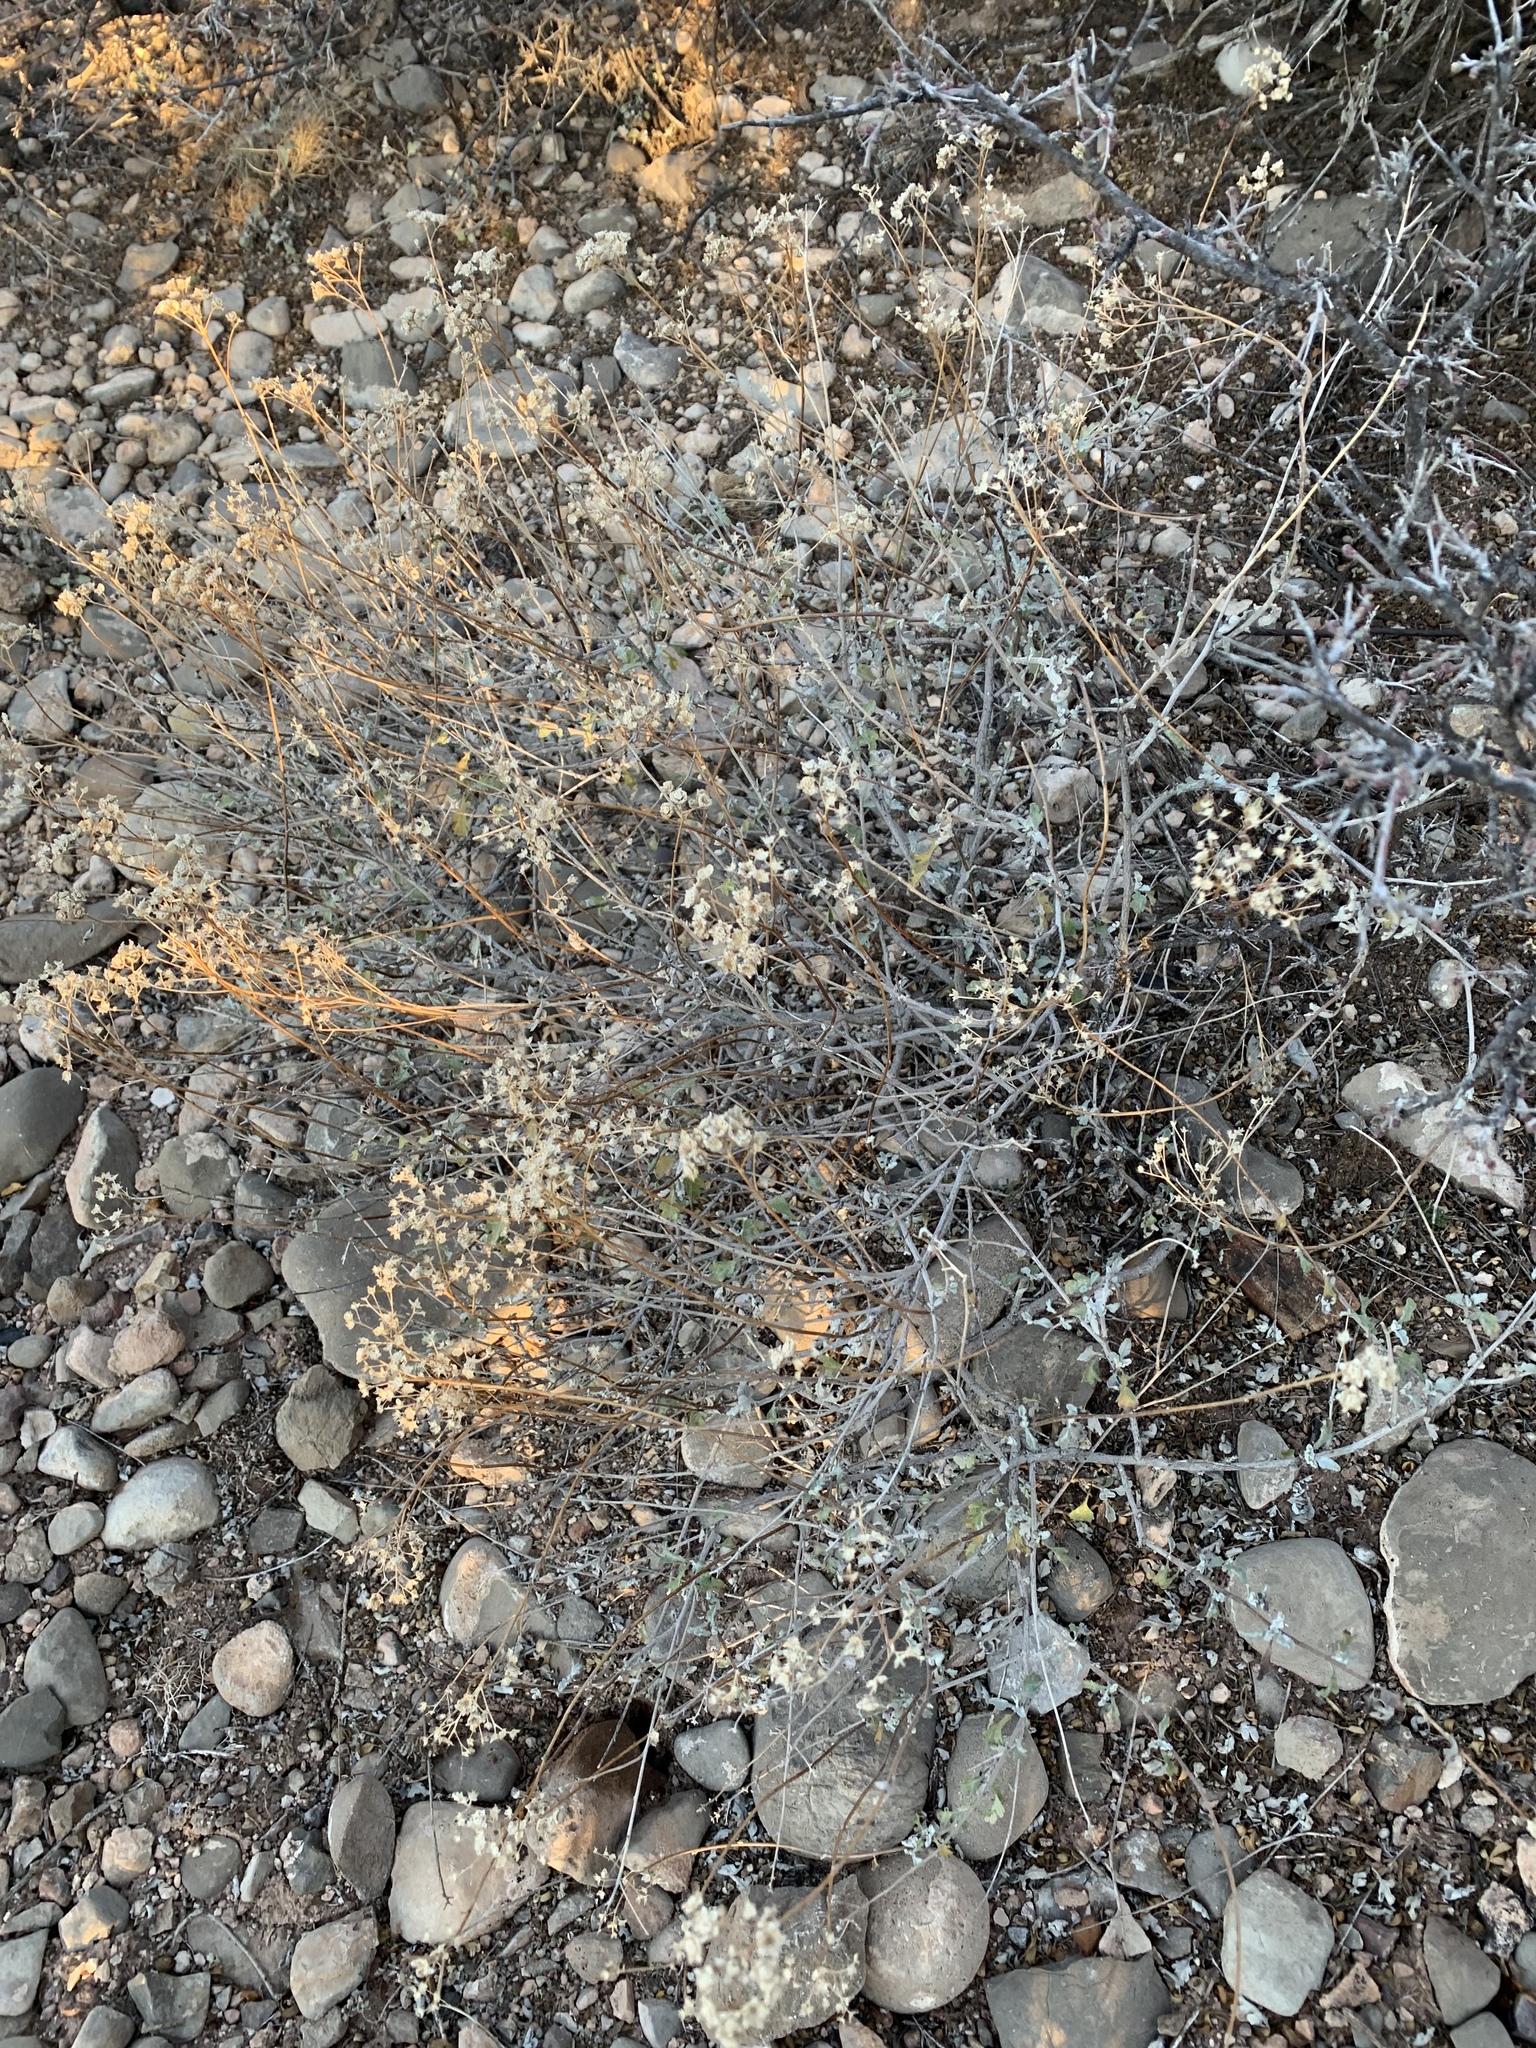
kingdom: Plantae
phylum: Tracheophyta
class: Magnoliopsida
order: Asterales
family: Asteraceae
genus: Parthenium
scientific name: Parthenium incanum
